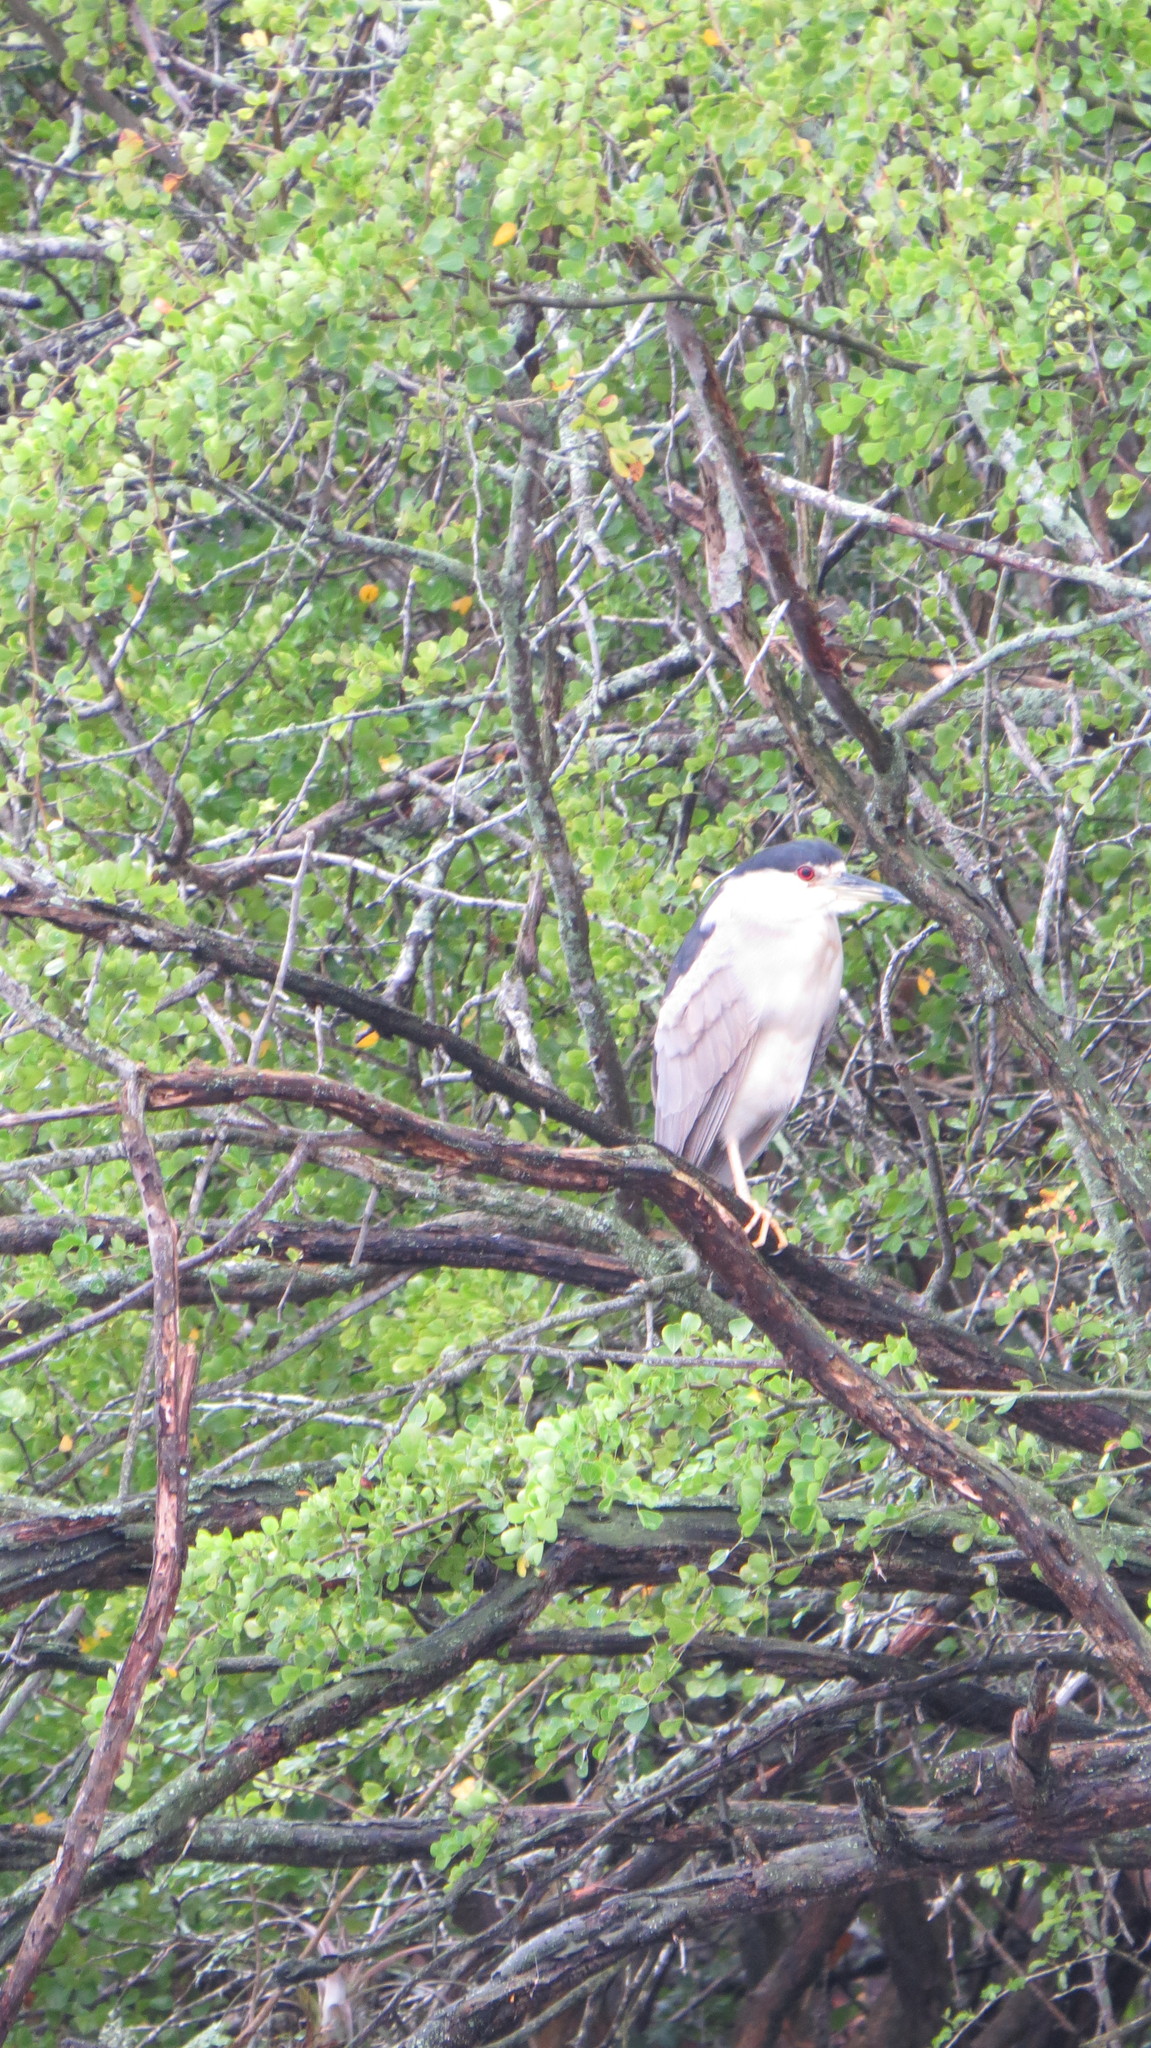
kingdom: Animalia
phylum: Chordata
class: Aves
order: Pelecaniformes
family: Ardeidae
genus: Nycticorax
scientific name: Nycticorax nycticorax
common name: Black-crowned night heron
